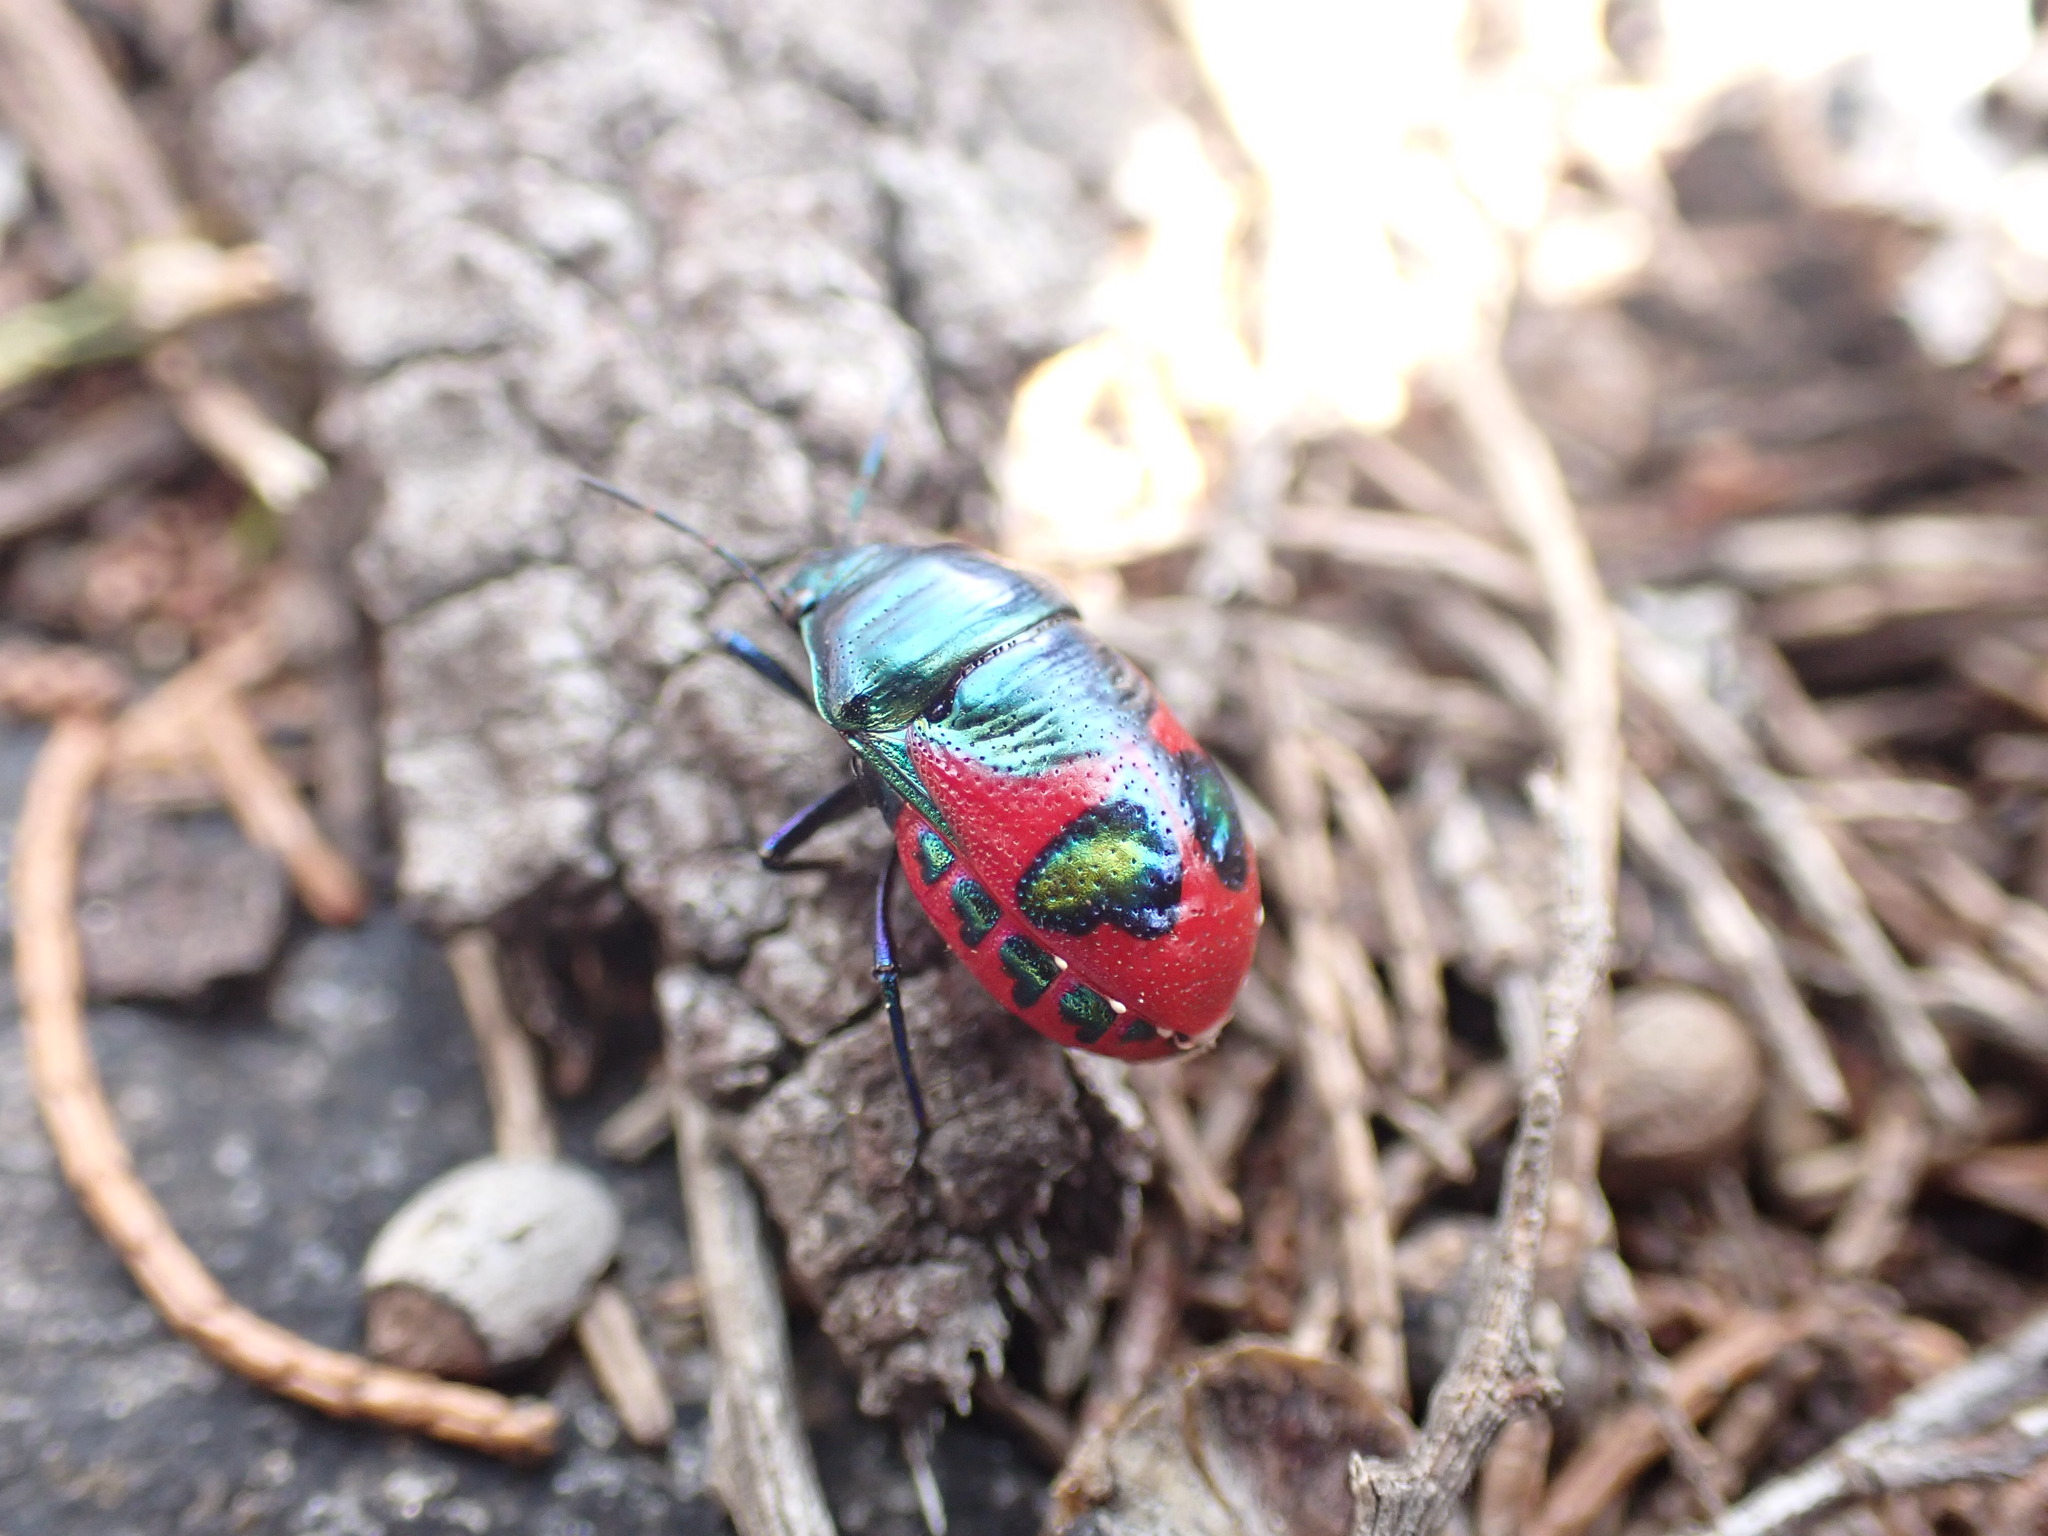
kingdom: Animalia
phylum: Arthropoda
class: Insecta
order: Hemiptera
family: Scutelleridae
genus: Choerocoris
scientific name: Choerocoris paganus
